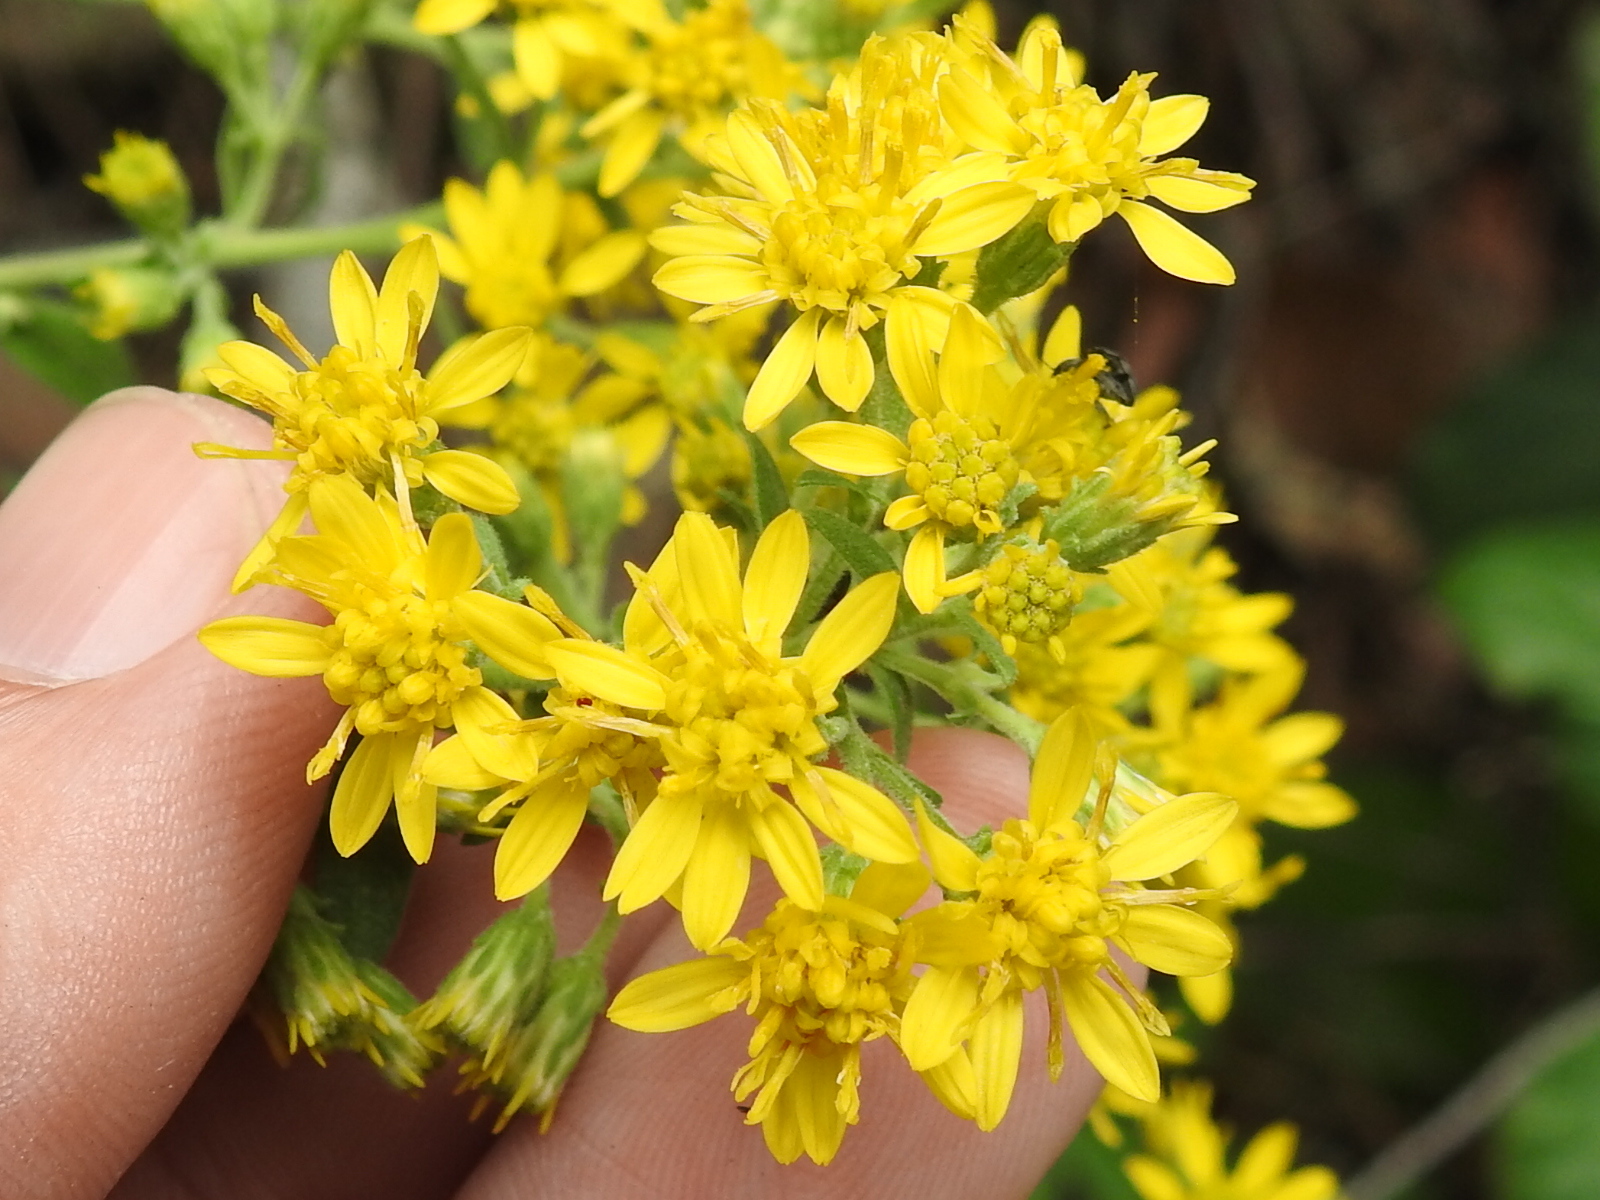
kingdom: Plantae
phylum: Tracheophyta
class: Magnoliopsida
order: Asterales
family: Asteraceae
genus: Solidago
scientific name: Solidago wrightii
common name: Wright's goldenrod
